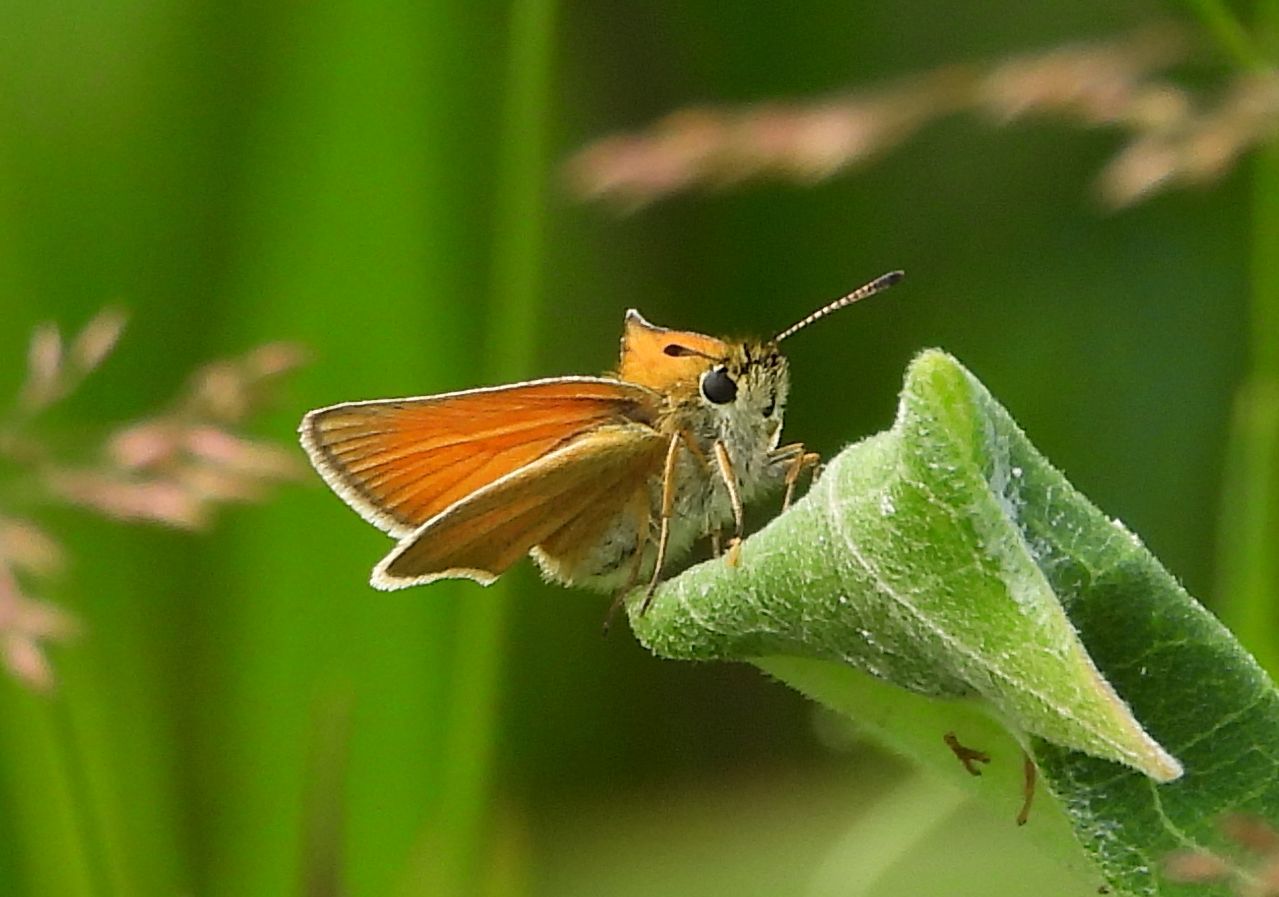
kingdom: Animalia
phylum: Arthropoda
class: Insecta
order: Lepidoptera
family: Hesperiidae
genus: Thymelicus
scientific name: Thymelicus lineola
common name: Essex skipper
